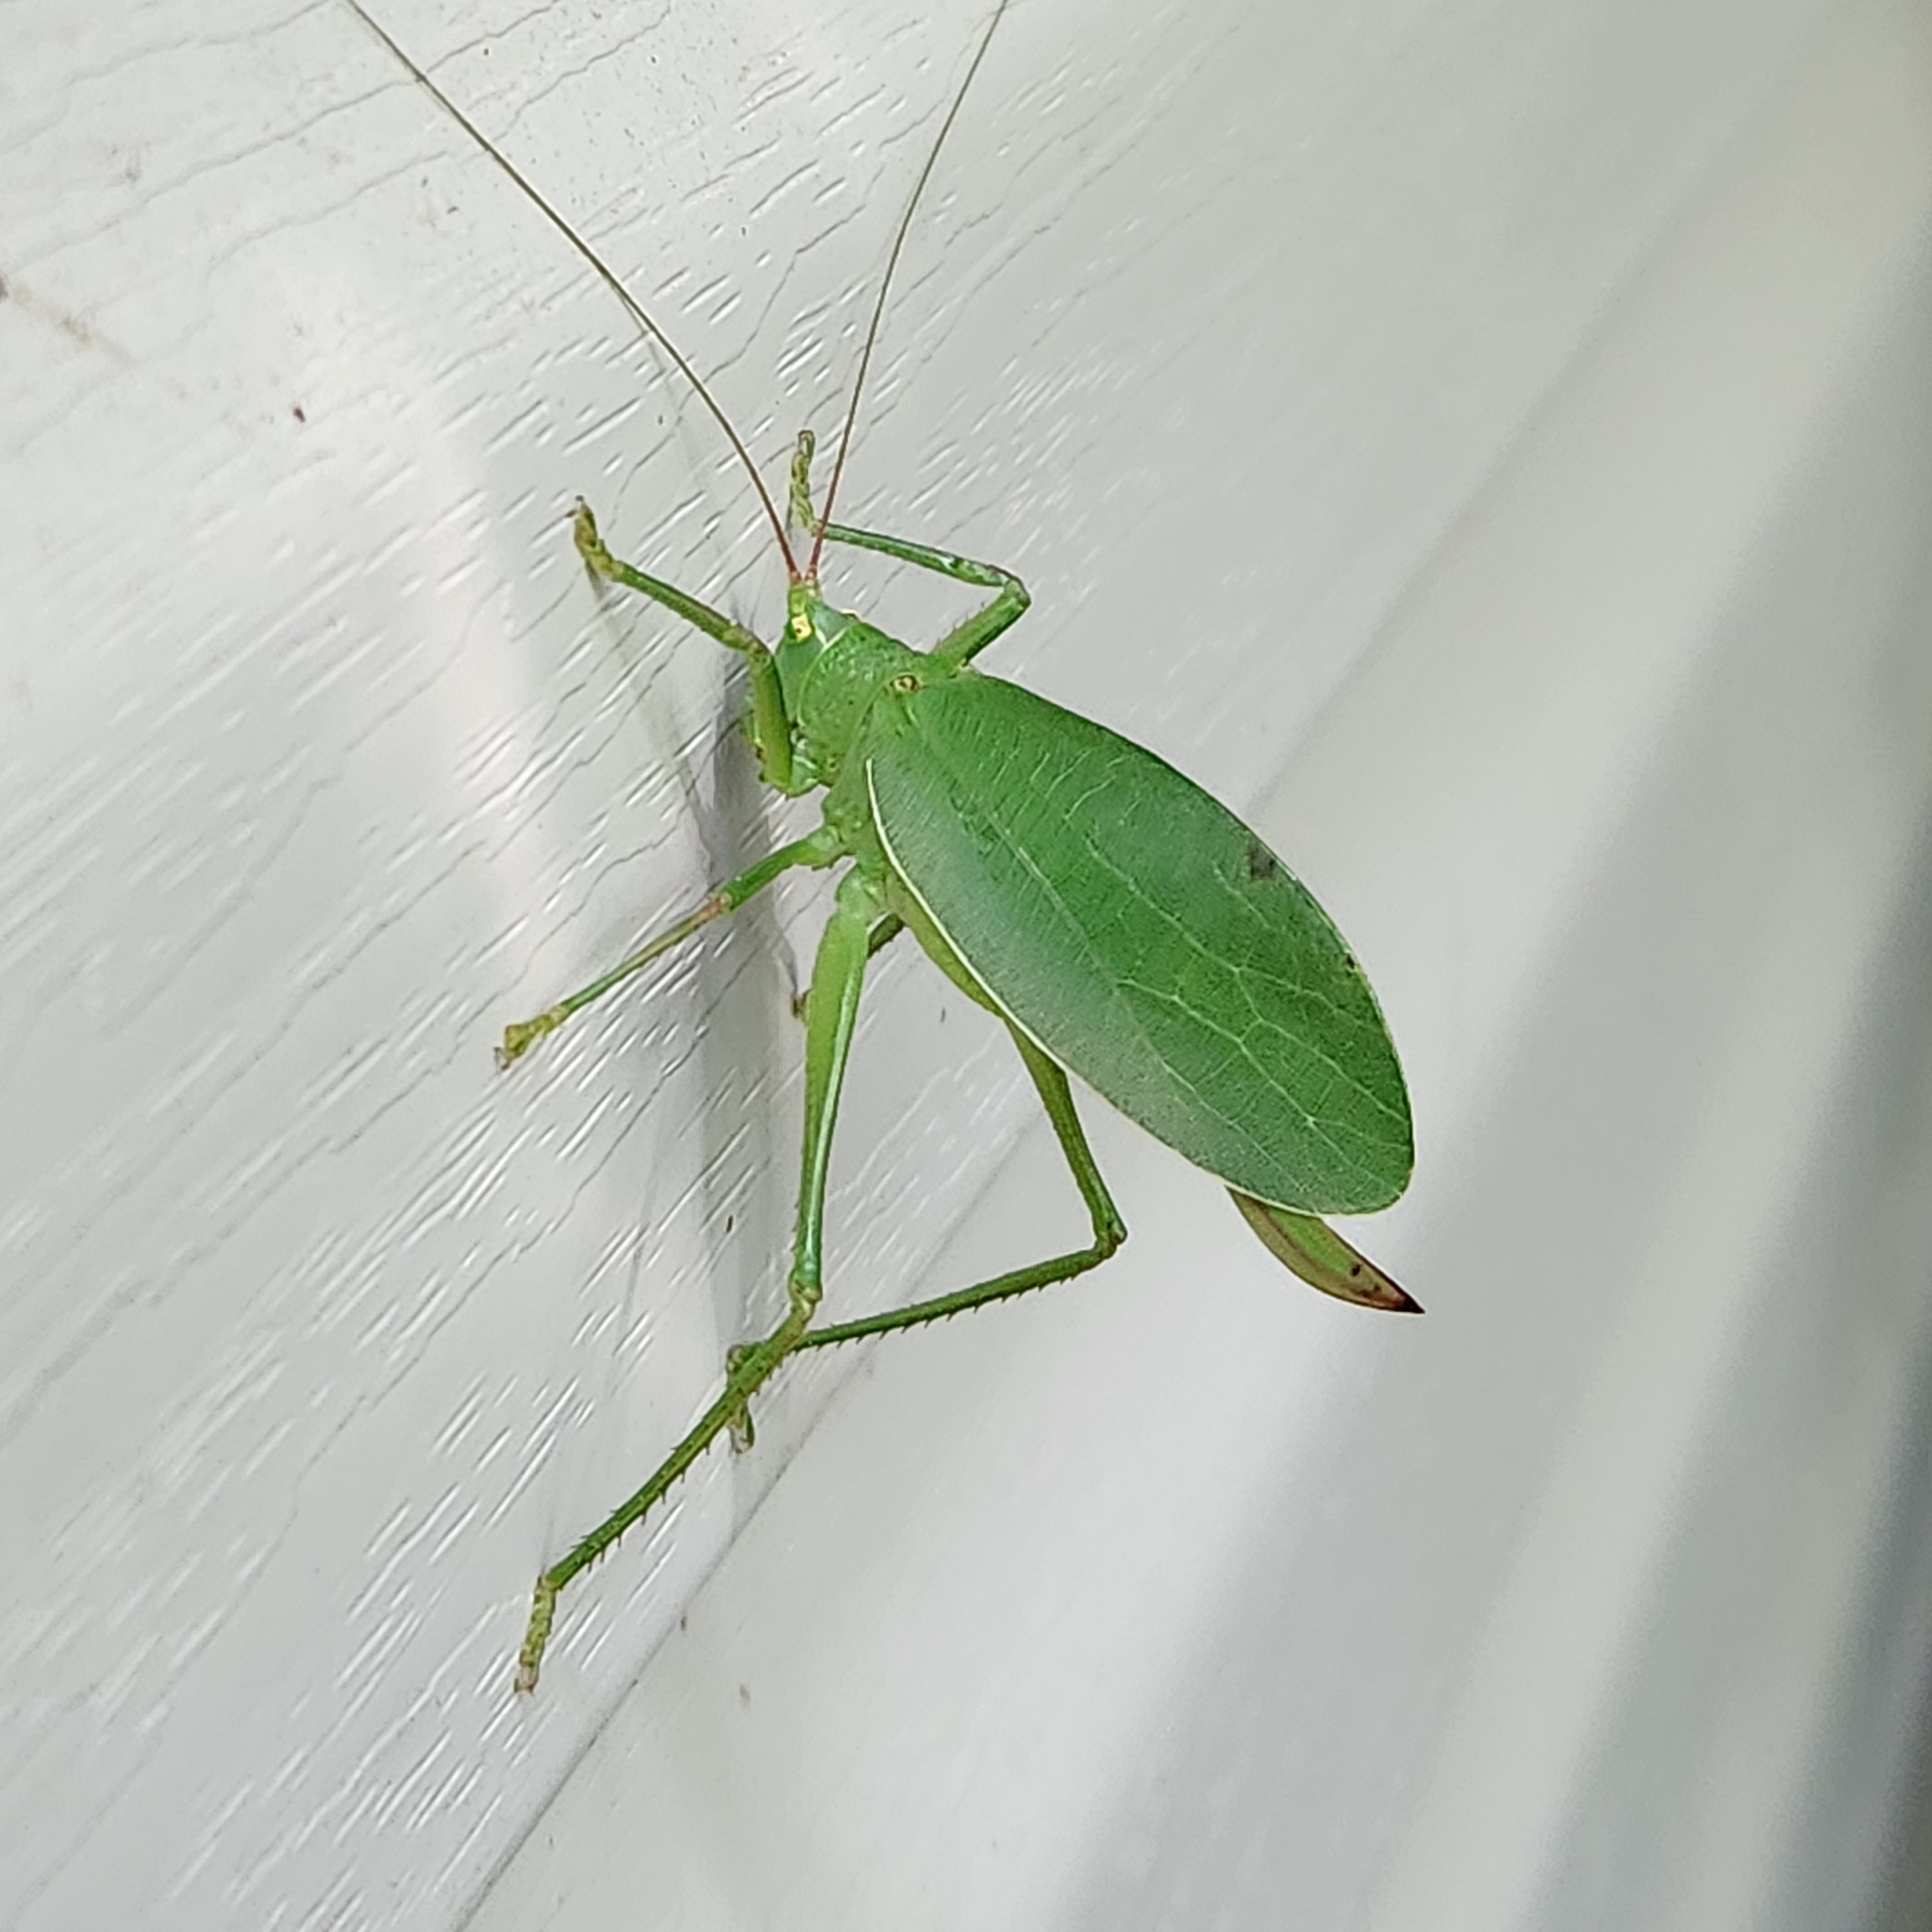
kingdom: Animalia
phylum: Arthropoda
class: Insecta
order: Orthoptera
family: Tettigoniidae
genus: Pterophylla
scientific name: Pterophylla camellifolia
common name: Common true katydid
